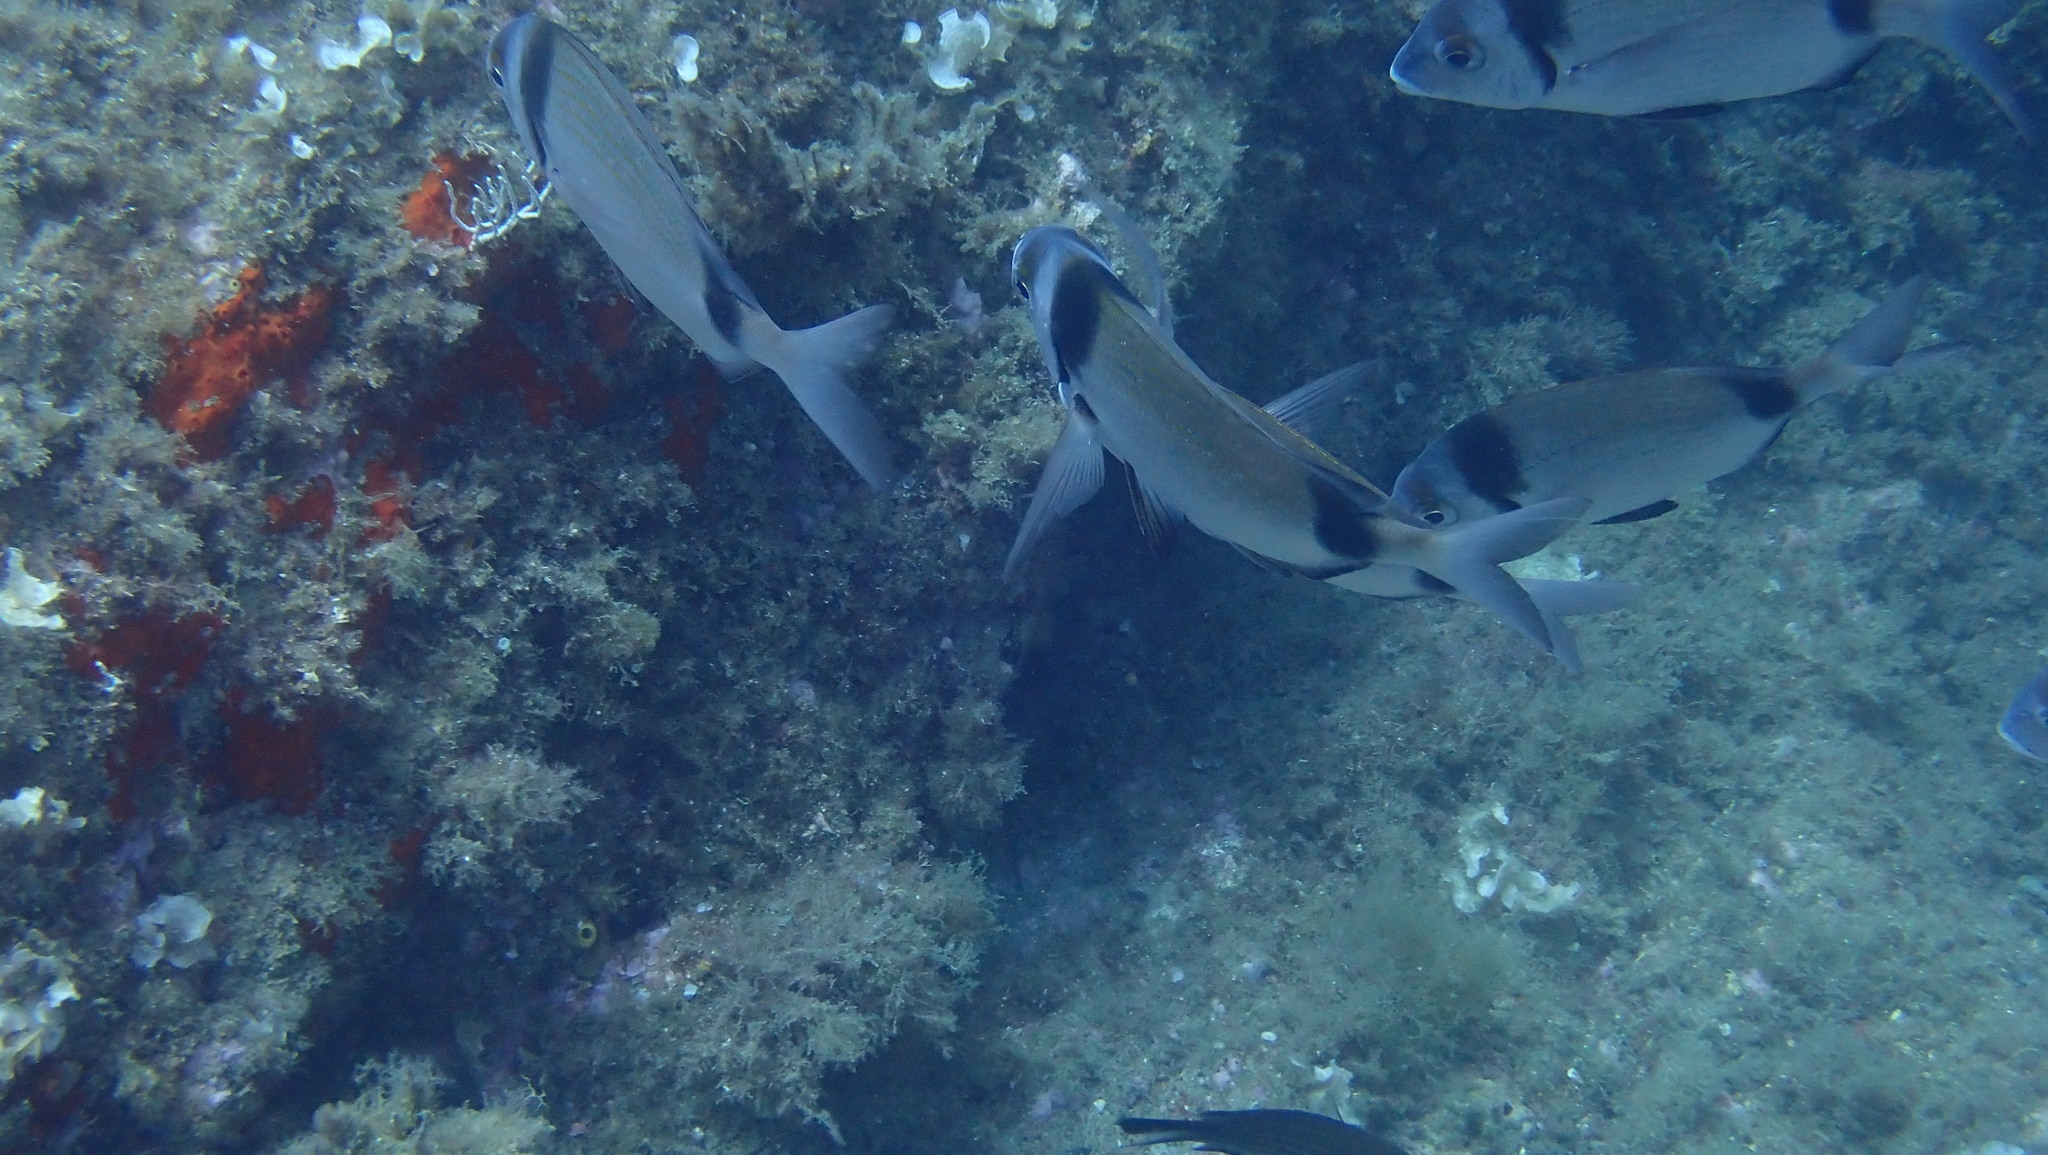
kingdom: Animalia
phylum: Chordata
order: Perciformes
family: Sparidae
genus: Diplodus
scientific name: Diplodus vulgaris
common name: Common two-banded seabream
